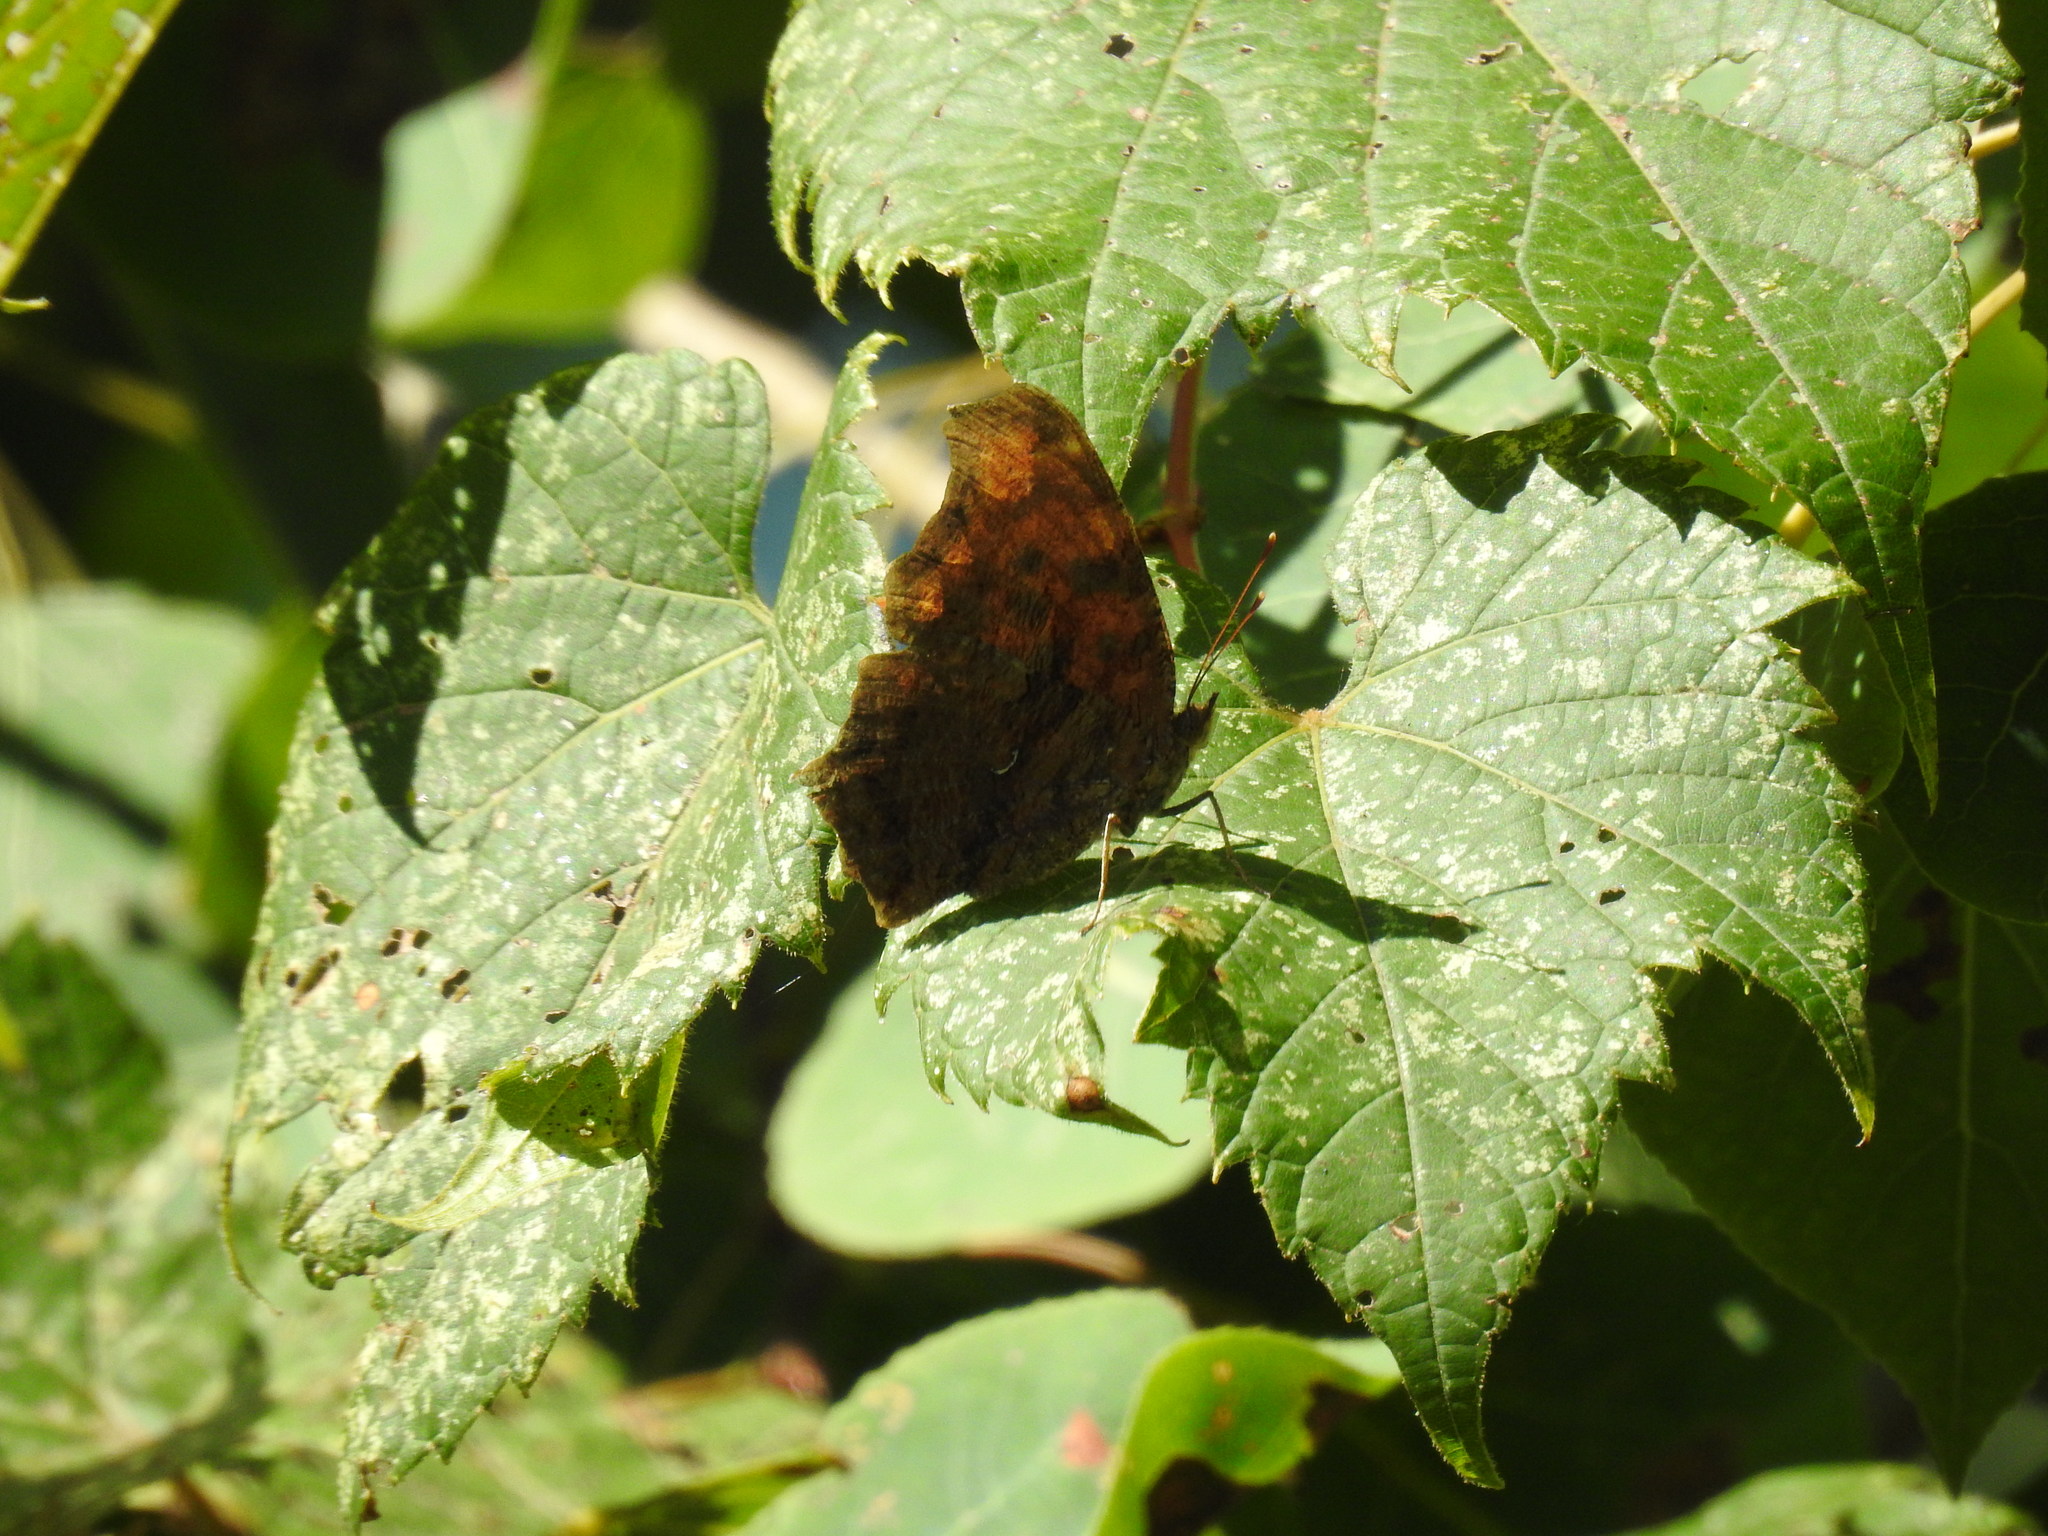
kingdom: Animalia
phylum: Arthropoda
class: Insecta
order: Lepidoptera
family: Nymphalidae
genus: Polygonia
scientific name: Polygonia comma
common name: Eastern comma
